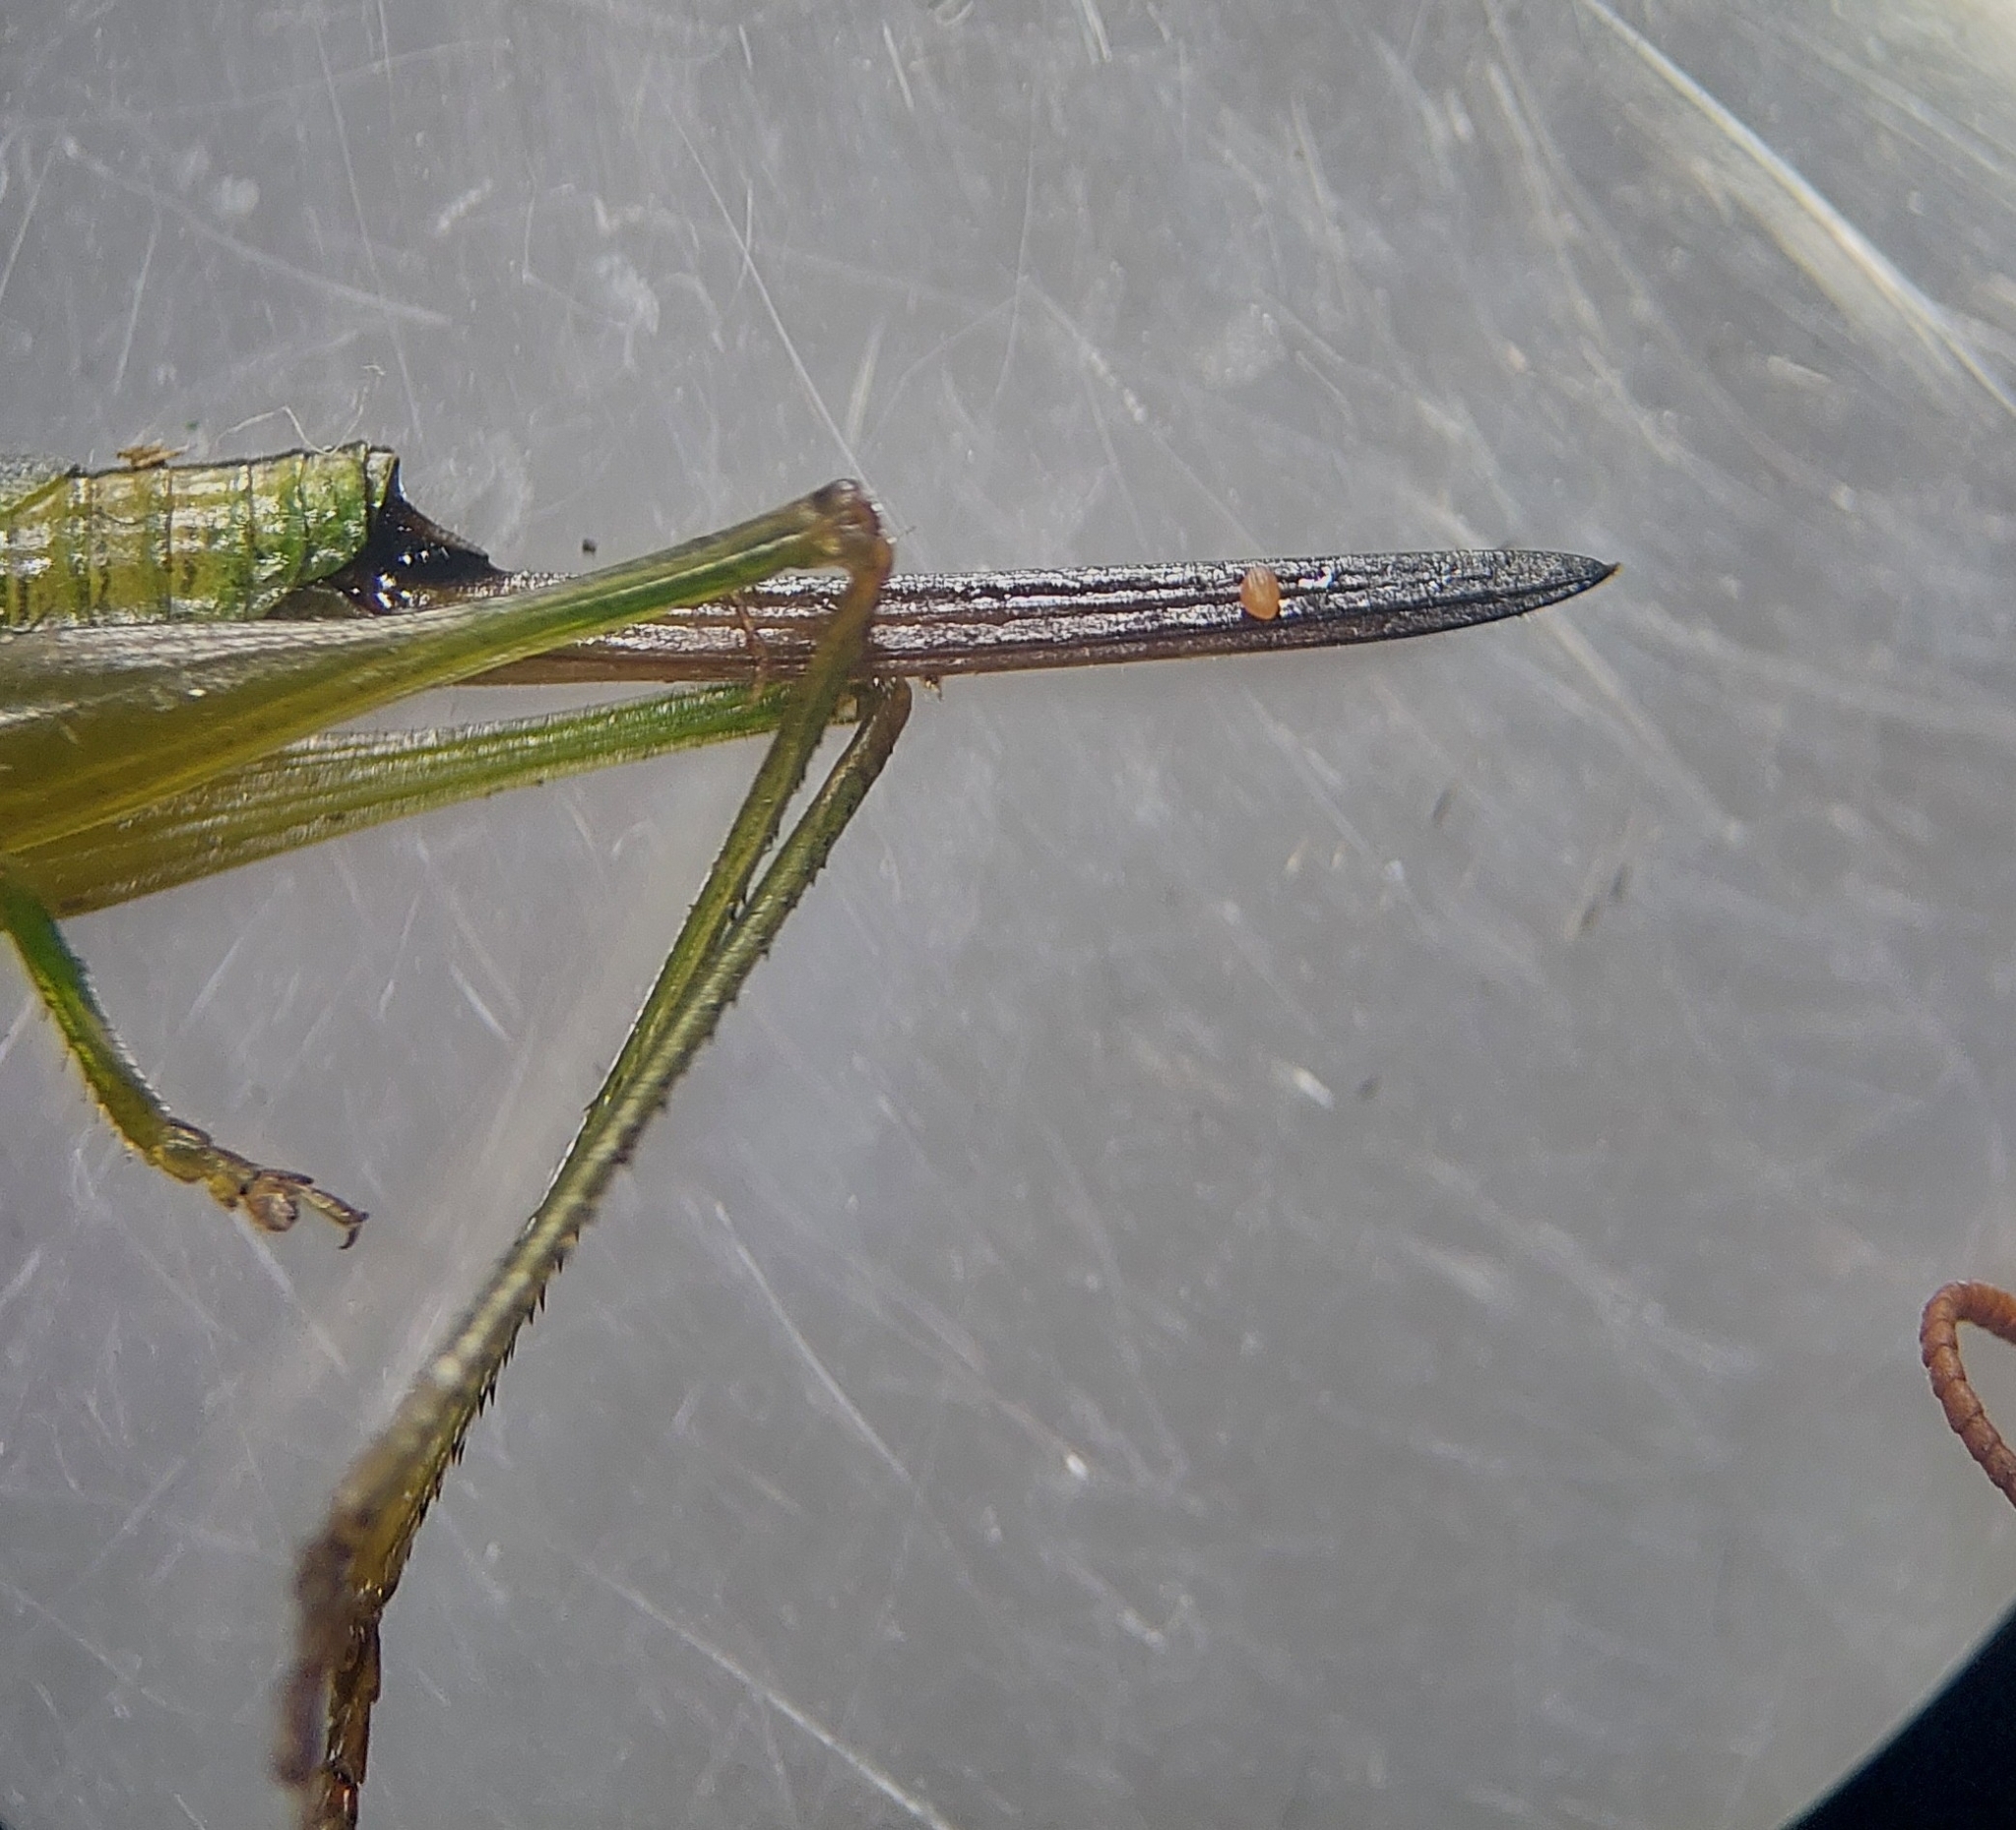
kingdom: Animalia
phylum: Arthropoda
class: Insecta
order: Orthoptera
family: Tettigoniidae
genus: Conocephalus
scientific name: Conocephalus fuscus
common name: Long-winged conehead
